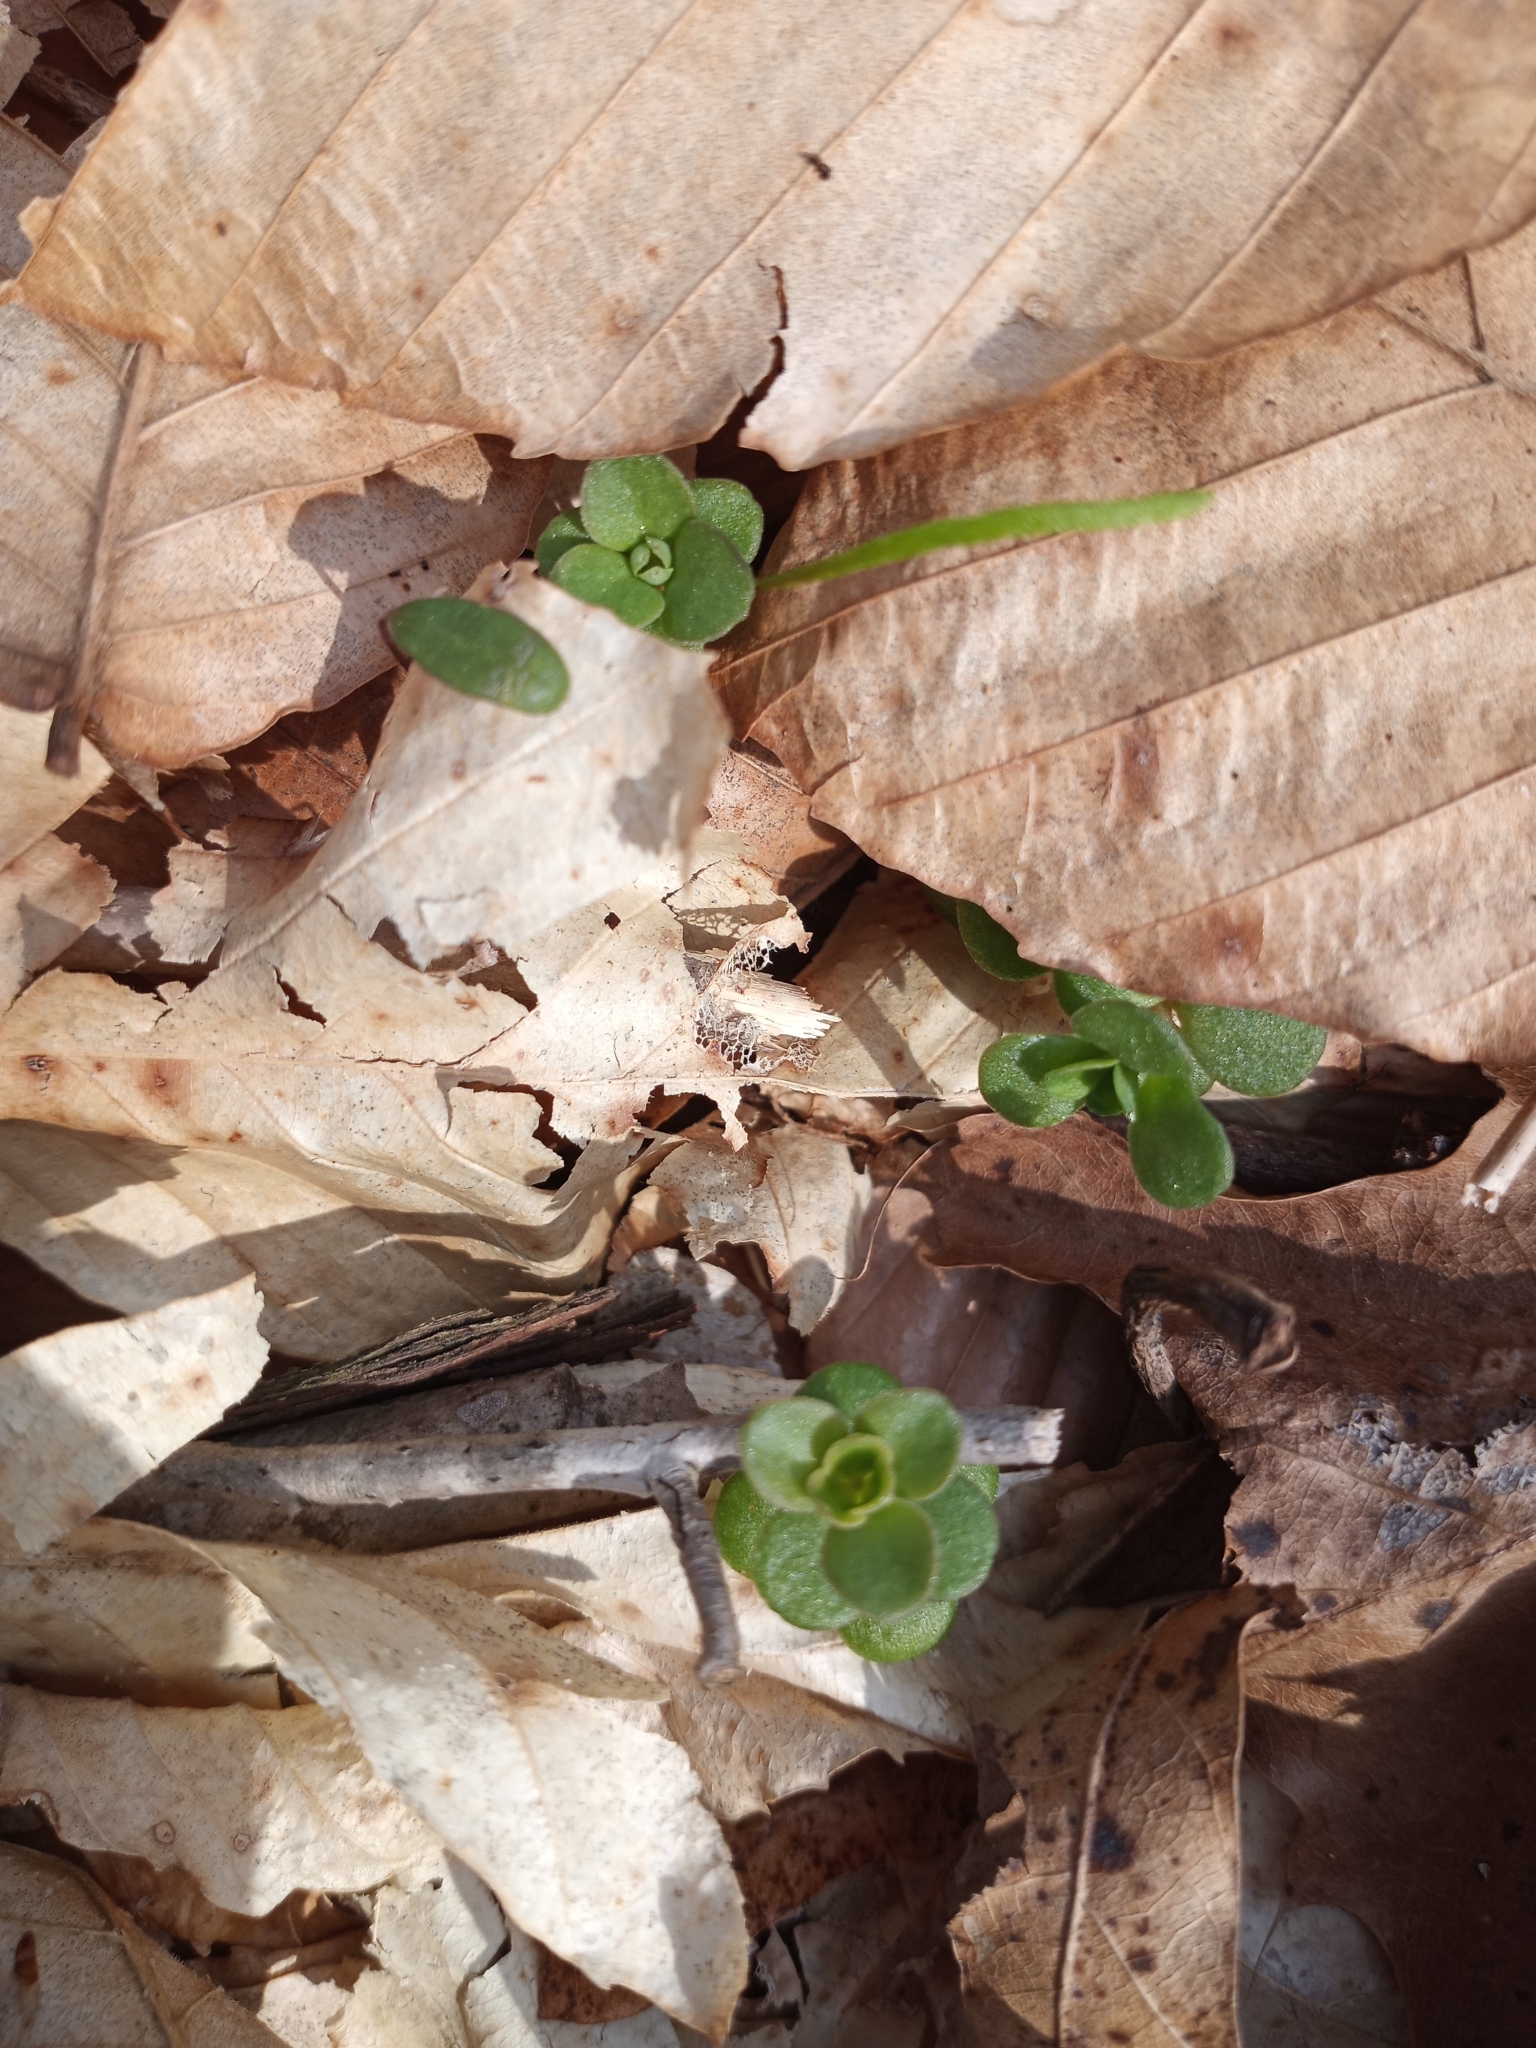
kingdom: Plantae
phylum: Tracheophyta
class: Magnoliopsida
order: Saxifragales
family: Crassulaceae
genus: Sedum
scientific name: Sedum ternatum
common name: Wild stonecrop
